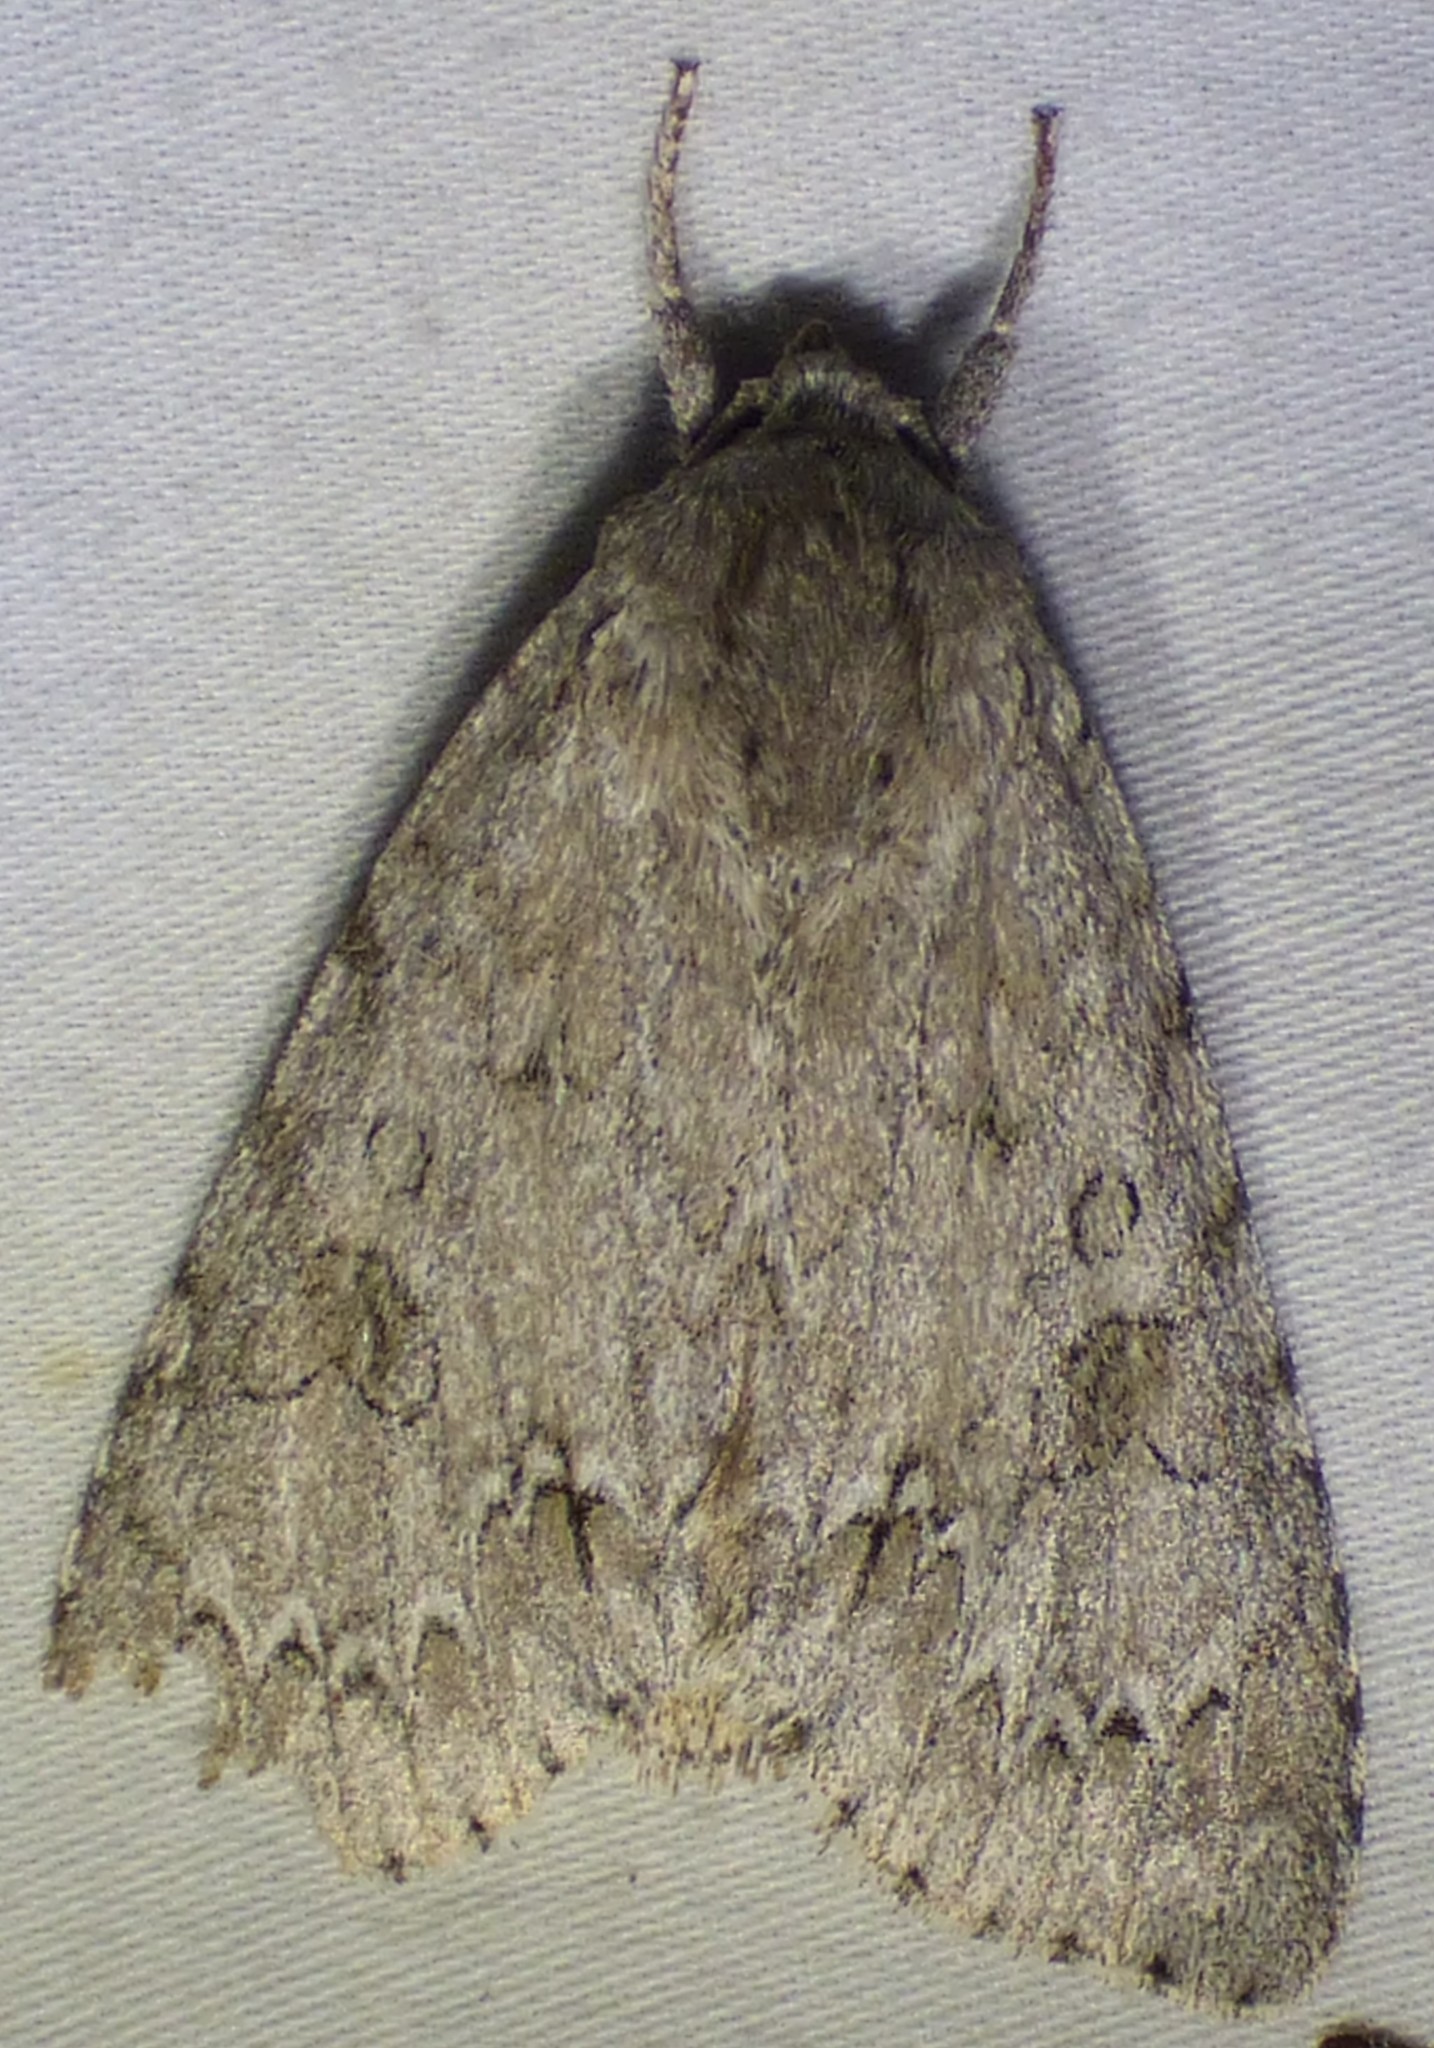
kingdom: Animalia
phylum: Arthropoda
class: Insecta
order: Lepidoptera
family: Noctuidae
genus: Acronicta
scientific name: Acronicta americana
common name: American dagger
